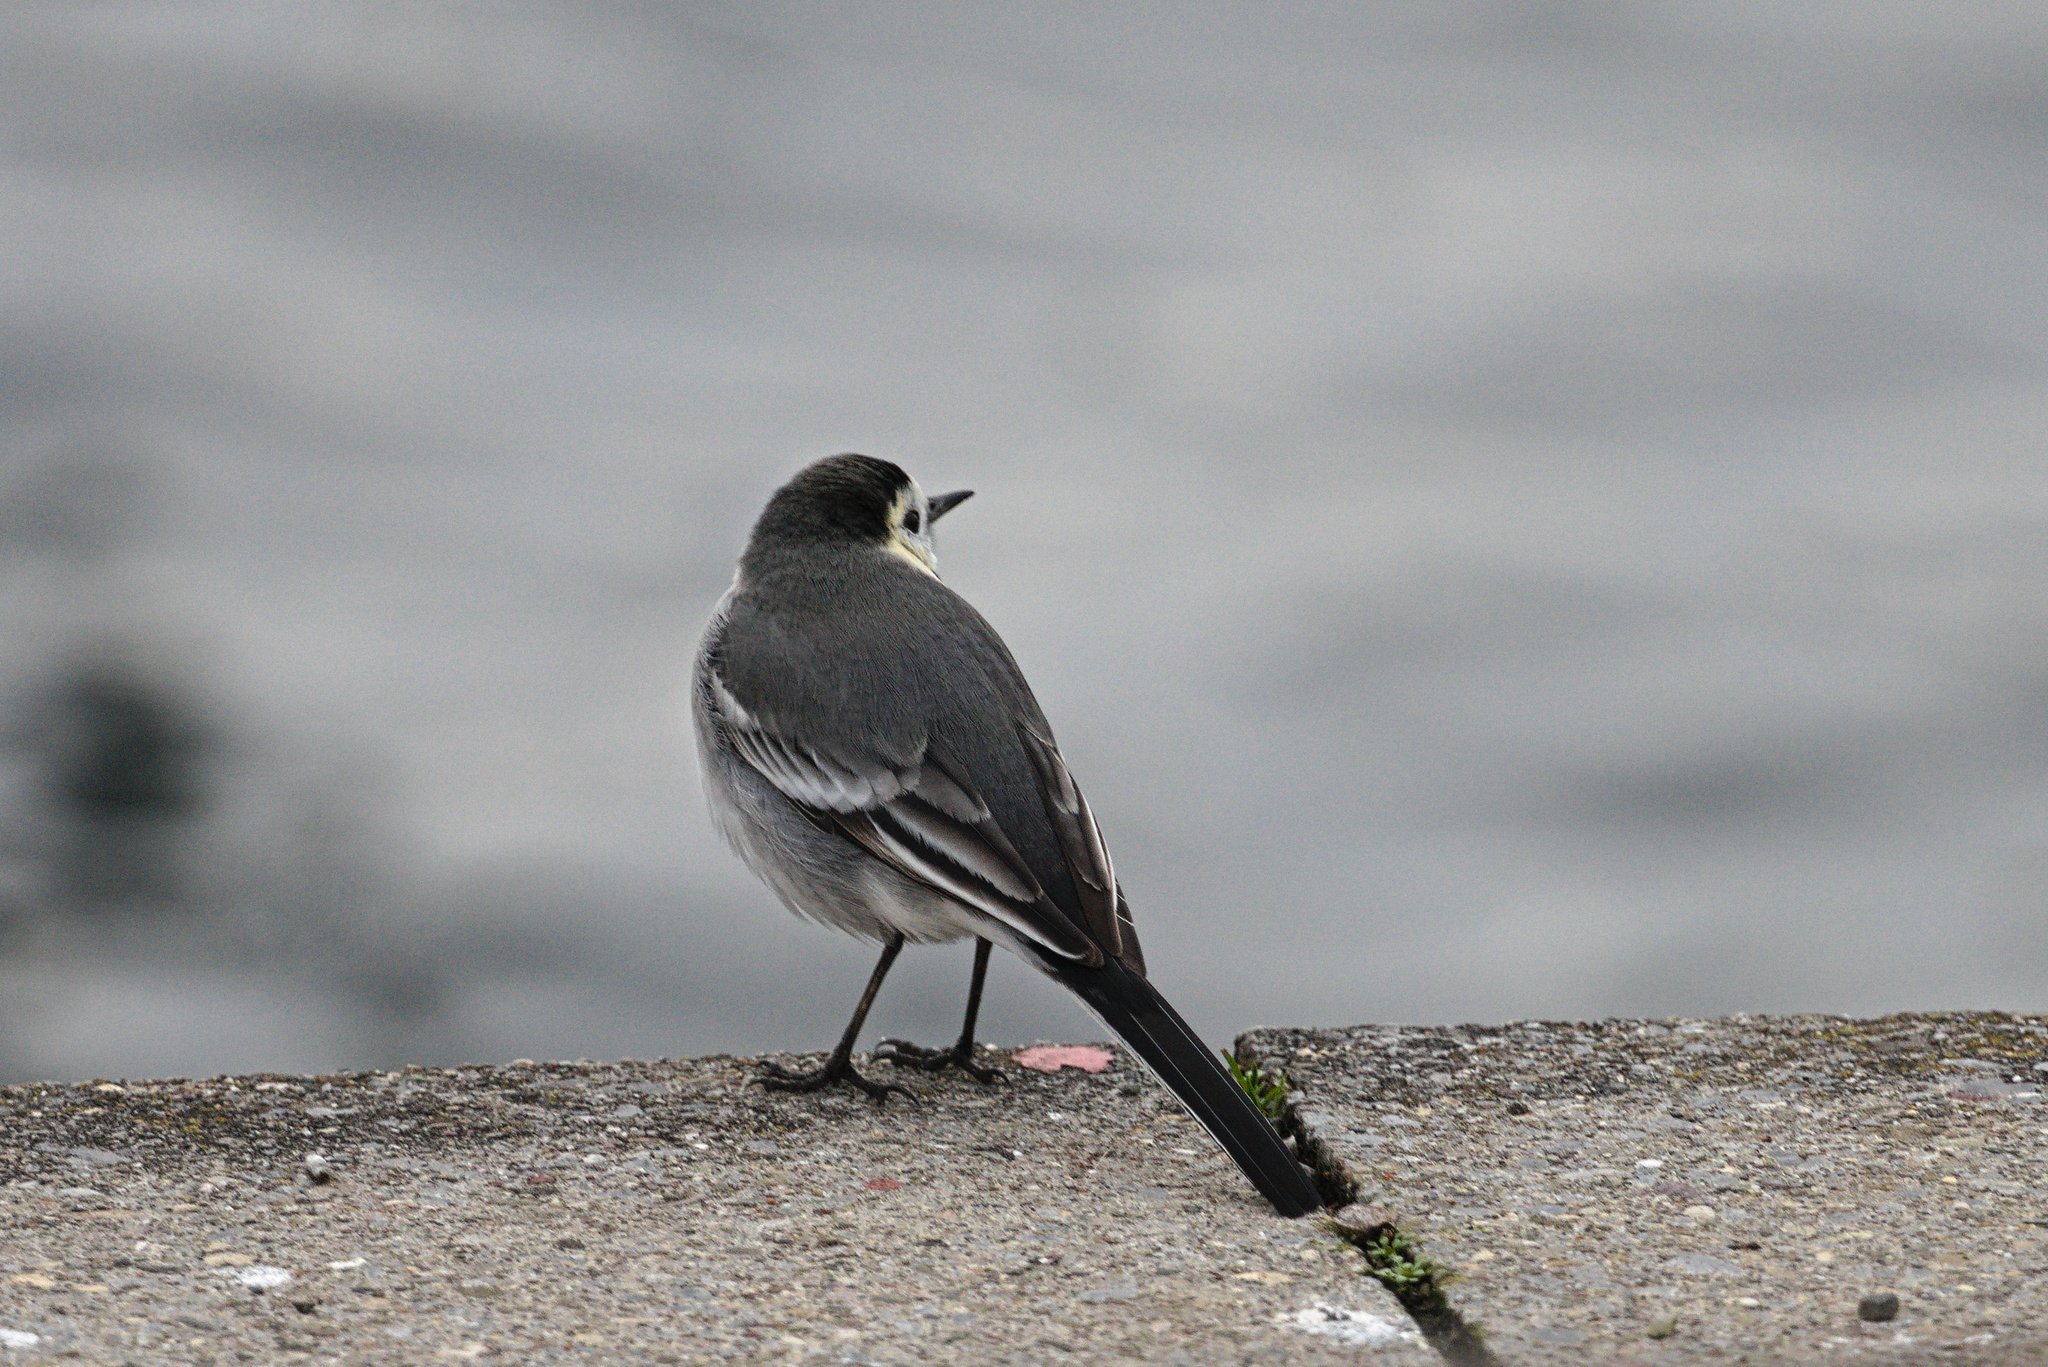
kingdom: Animalia
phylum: Chordata
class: Aves
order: Passeriformes
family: Motacillidae
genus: Motacilla
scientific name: Motacilla alba
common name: White wagtail
